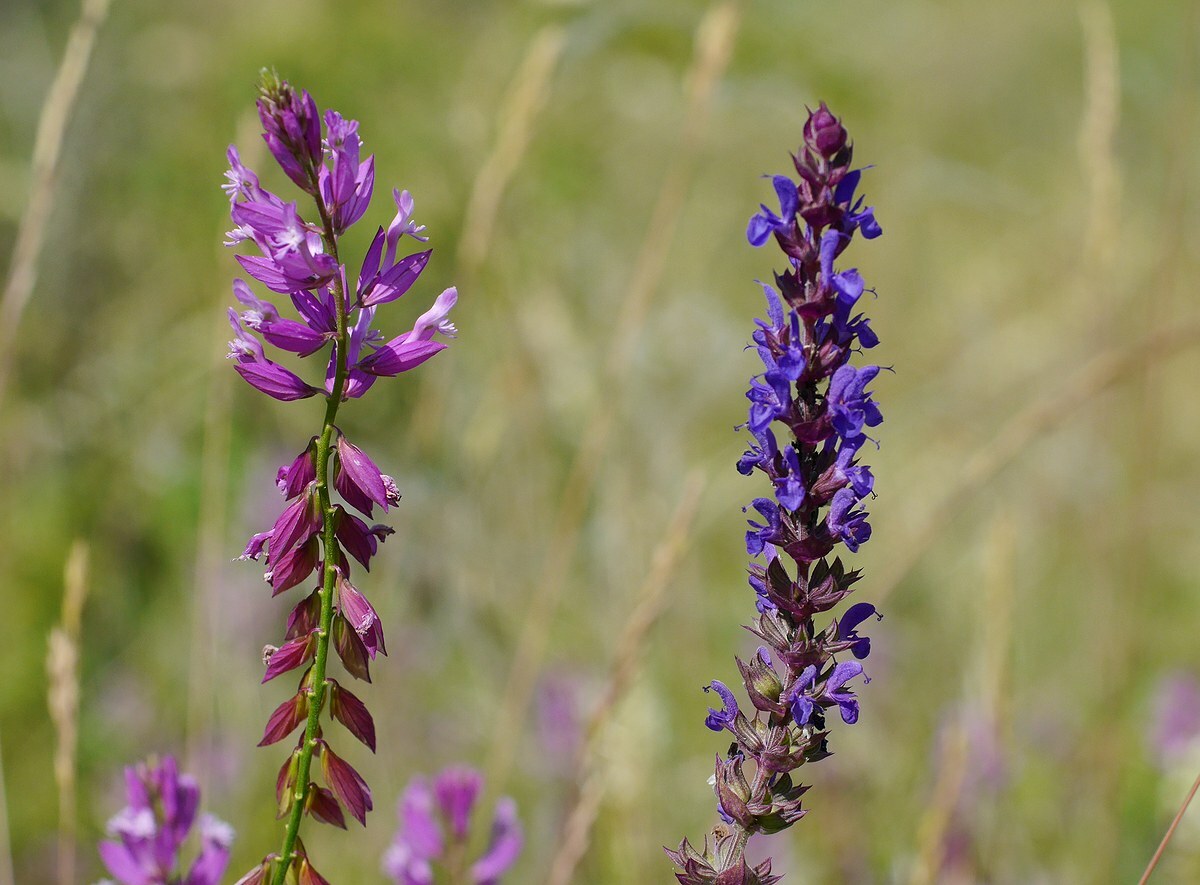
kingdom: Plantae
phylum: Tracheophyta
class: Magnoliopsida
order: Fabales
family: Polygalaceae
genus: Polygala
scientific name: Polygala major
